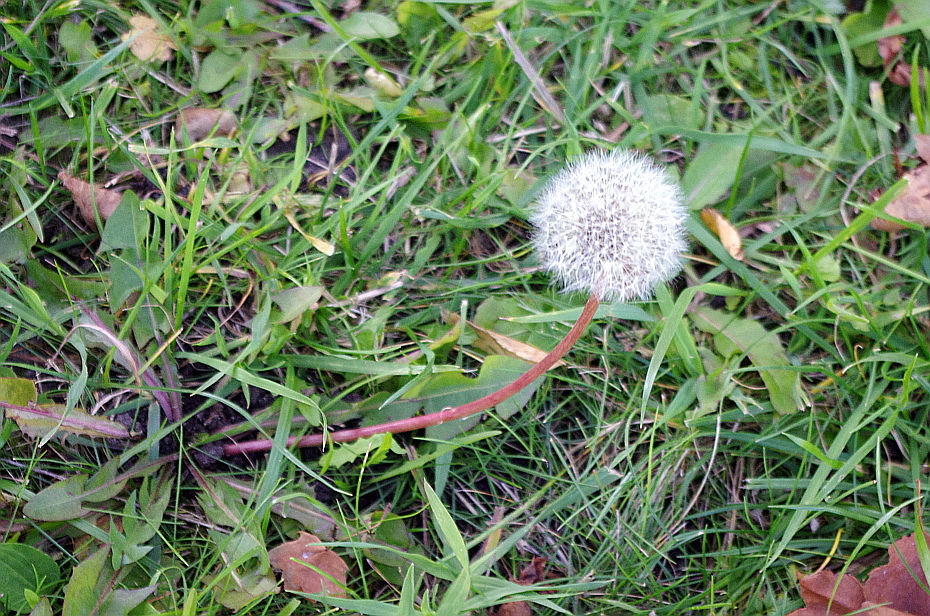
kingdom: Plantae
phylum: Tracheophyta
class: Magnoliopsida
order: Asterales
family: Asteraceae
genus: Taraxacum
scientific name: Taraxacum officinale
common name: Common dandelion
